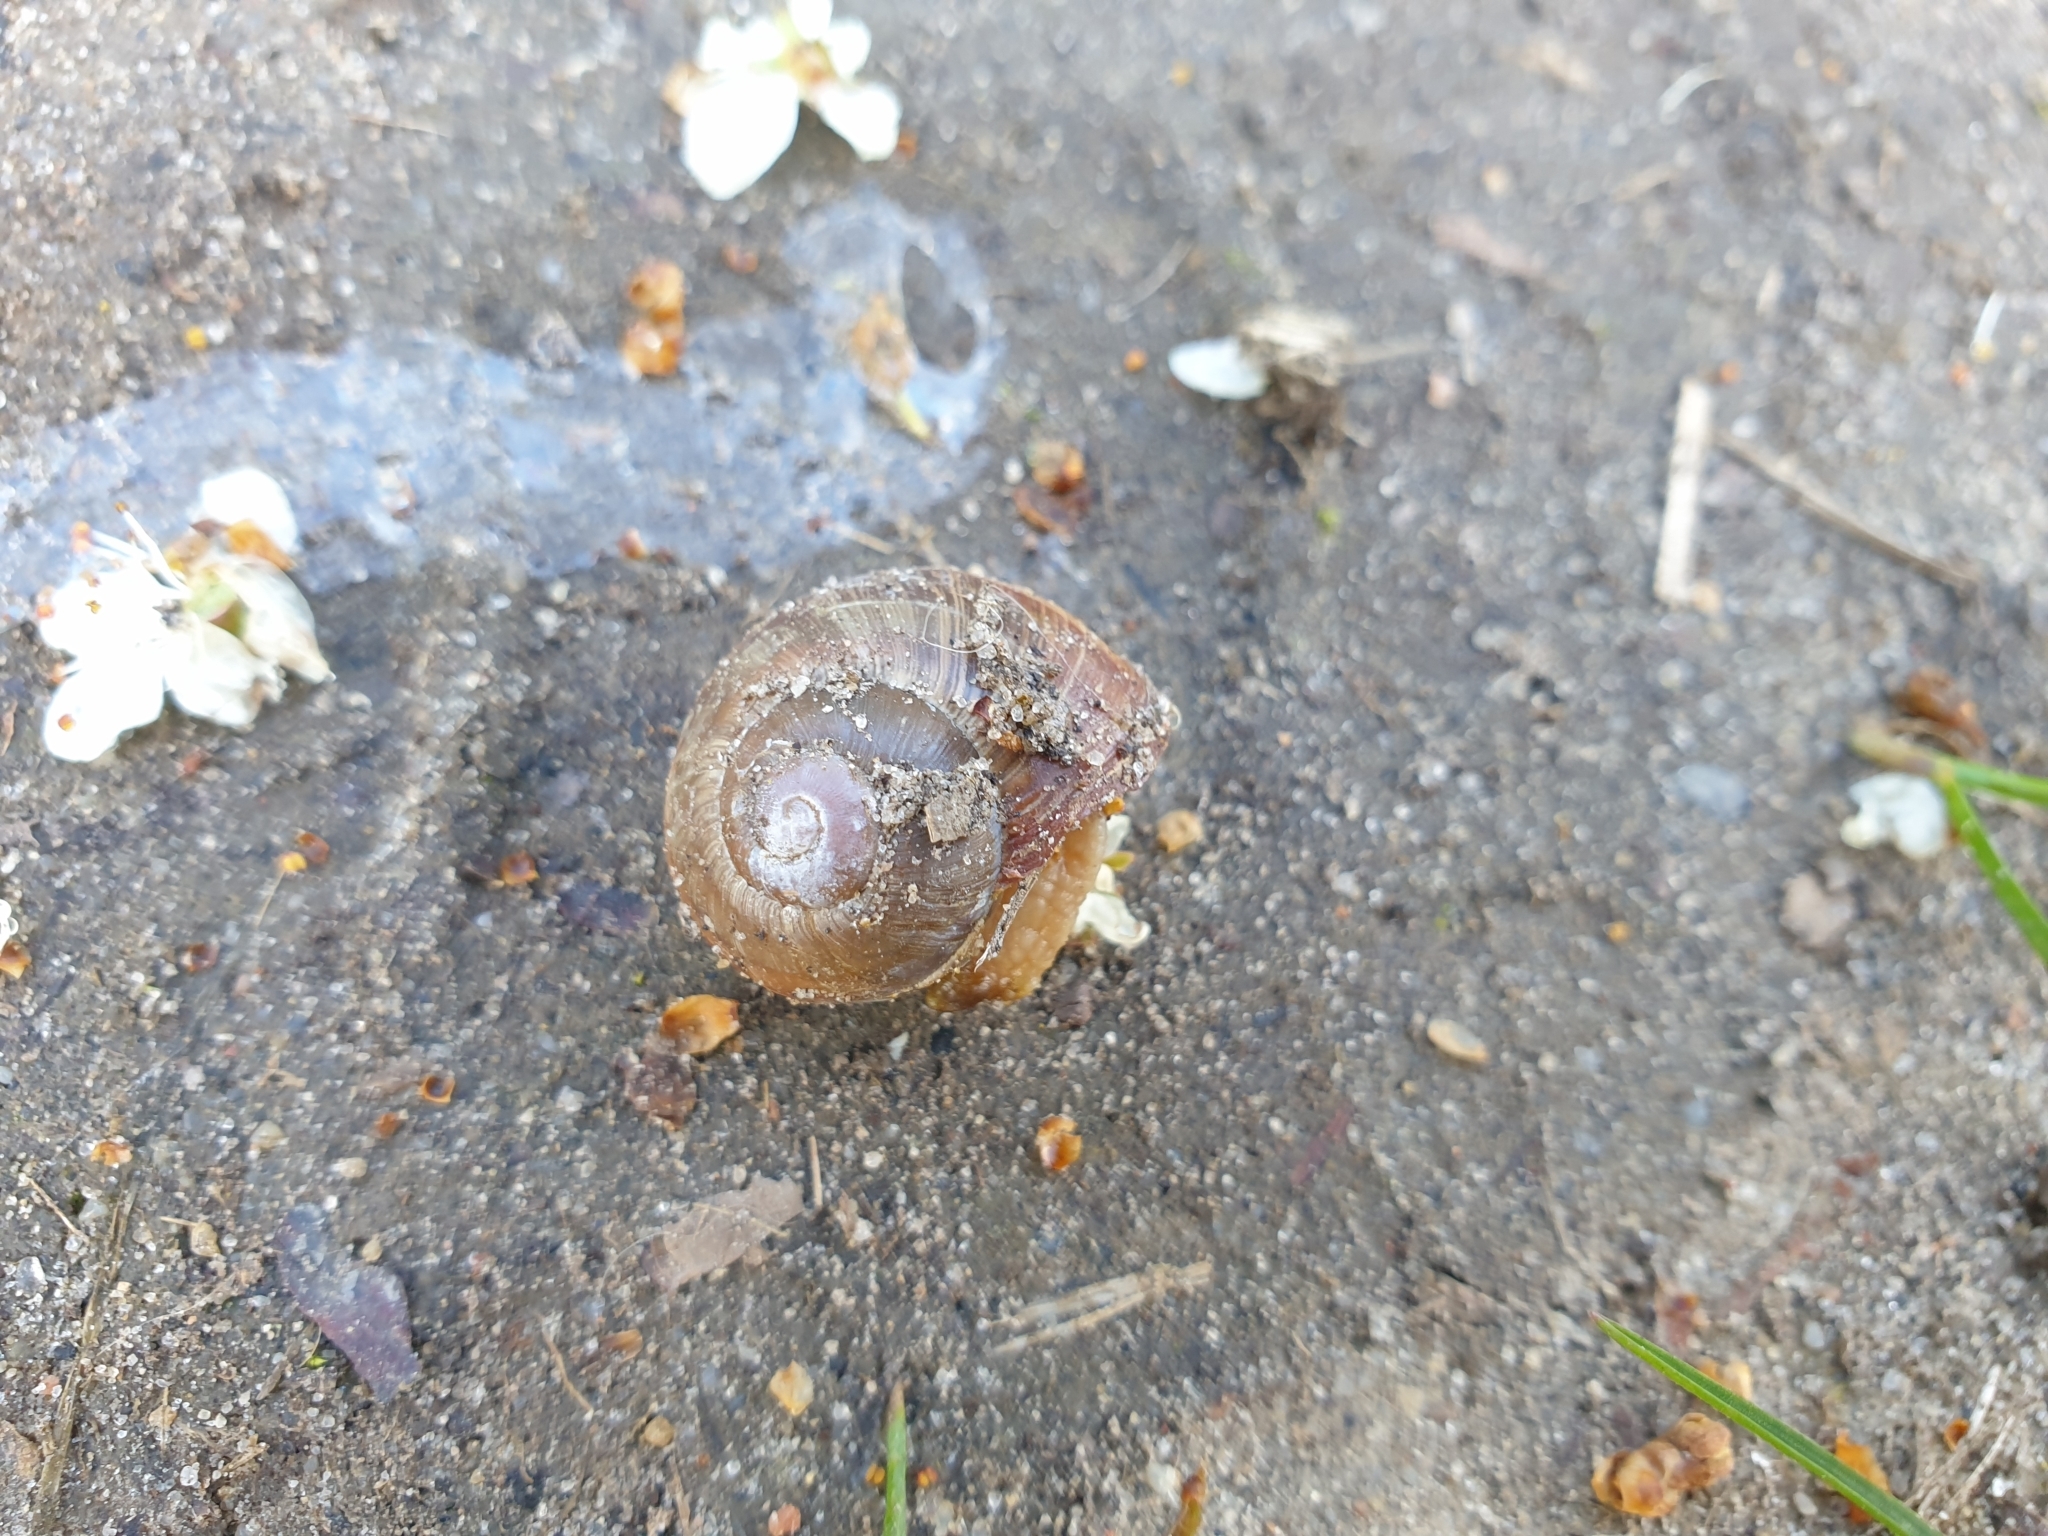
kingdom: Animalia
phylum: Mollusca
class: Gastropoda
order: Stylommatophora
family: Helicidae
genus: Helix
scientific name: Helix pomatia
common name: Roman snail
